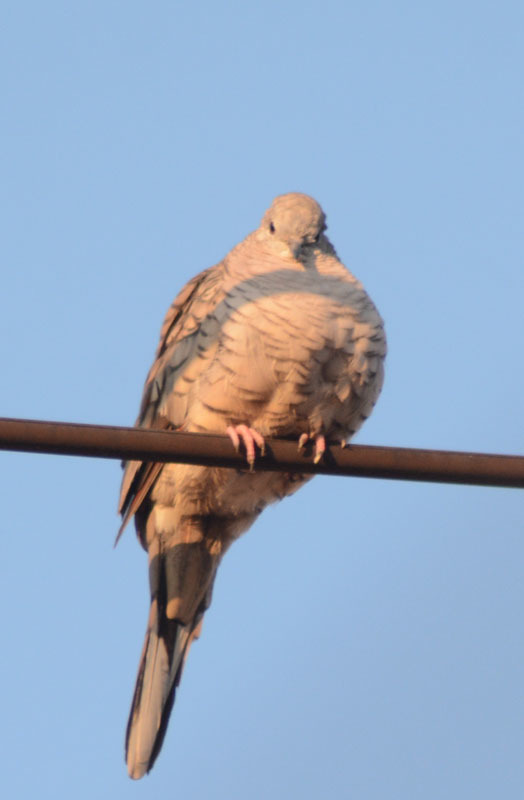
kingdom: Animalia
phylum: Chordata
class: Aves
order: Columbiformes
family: Columbidae
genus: Columbina
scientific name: Columbina inca
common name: Inca dove
